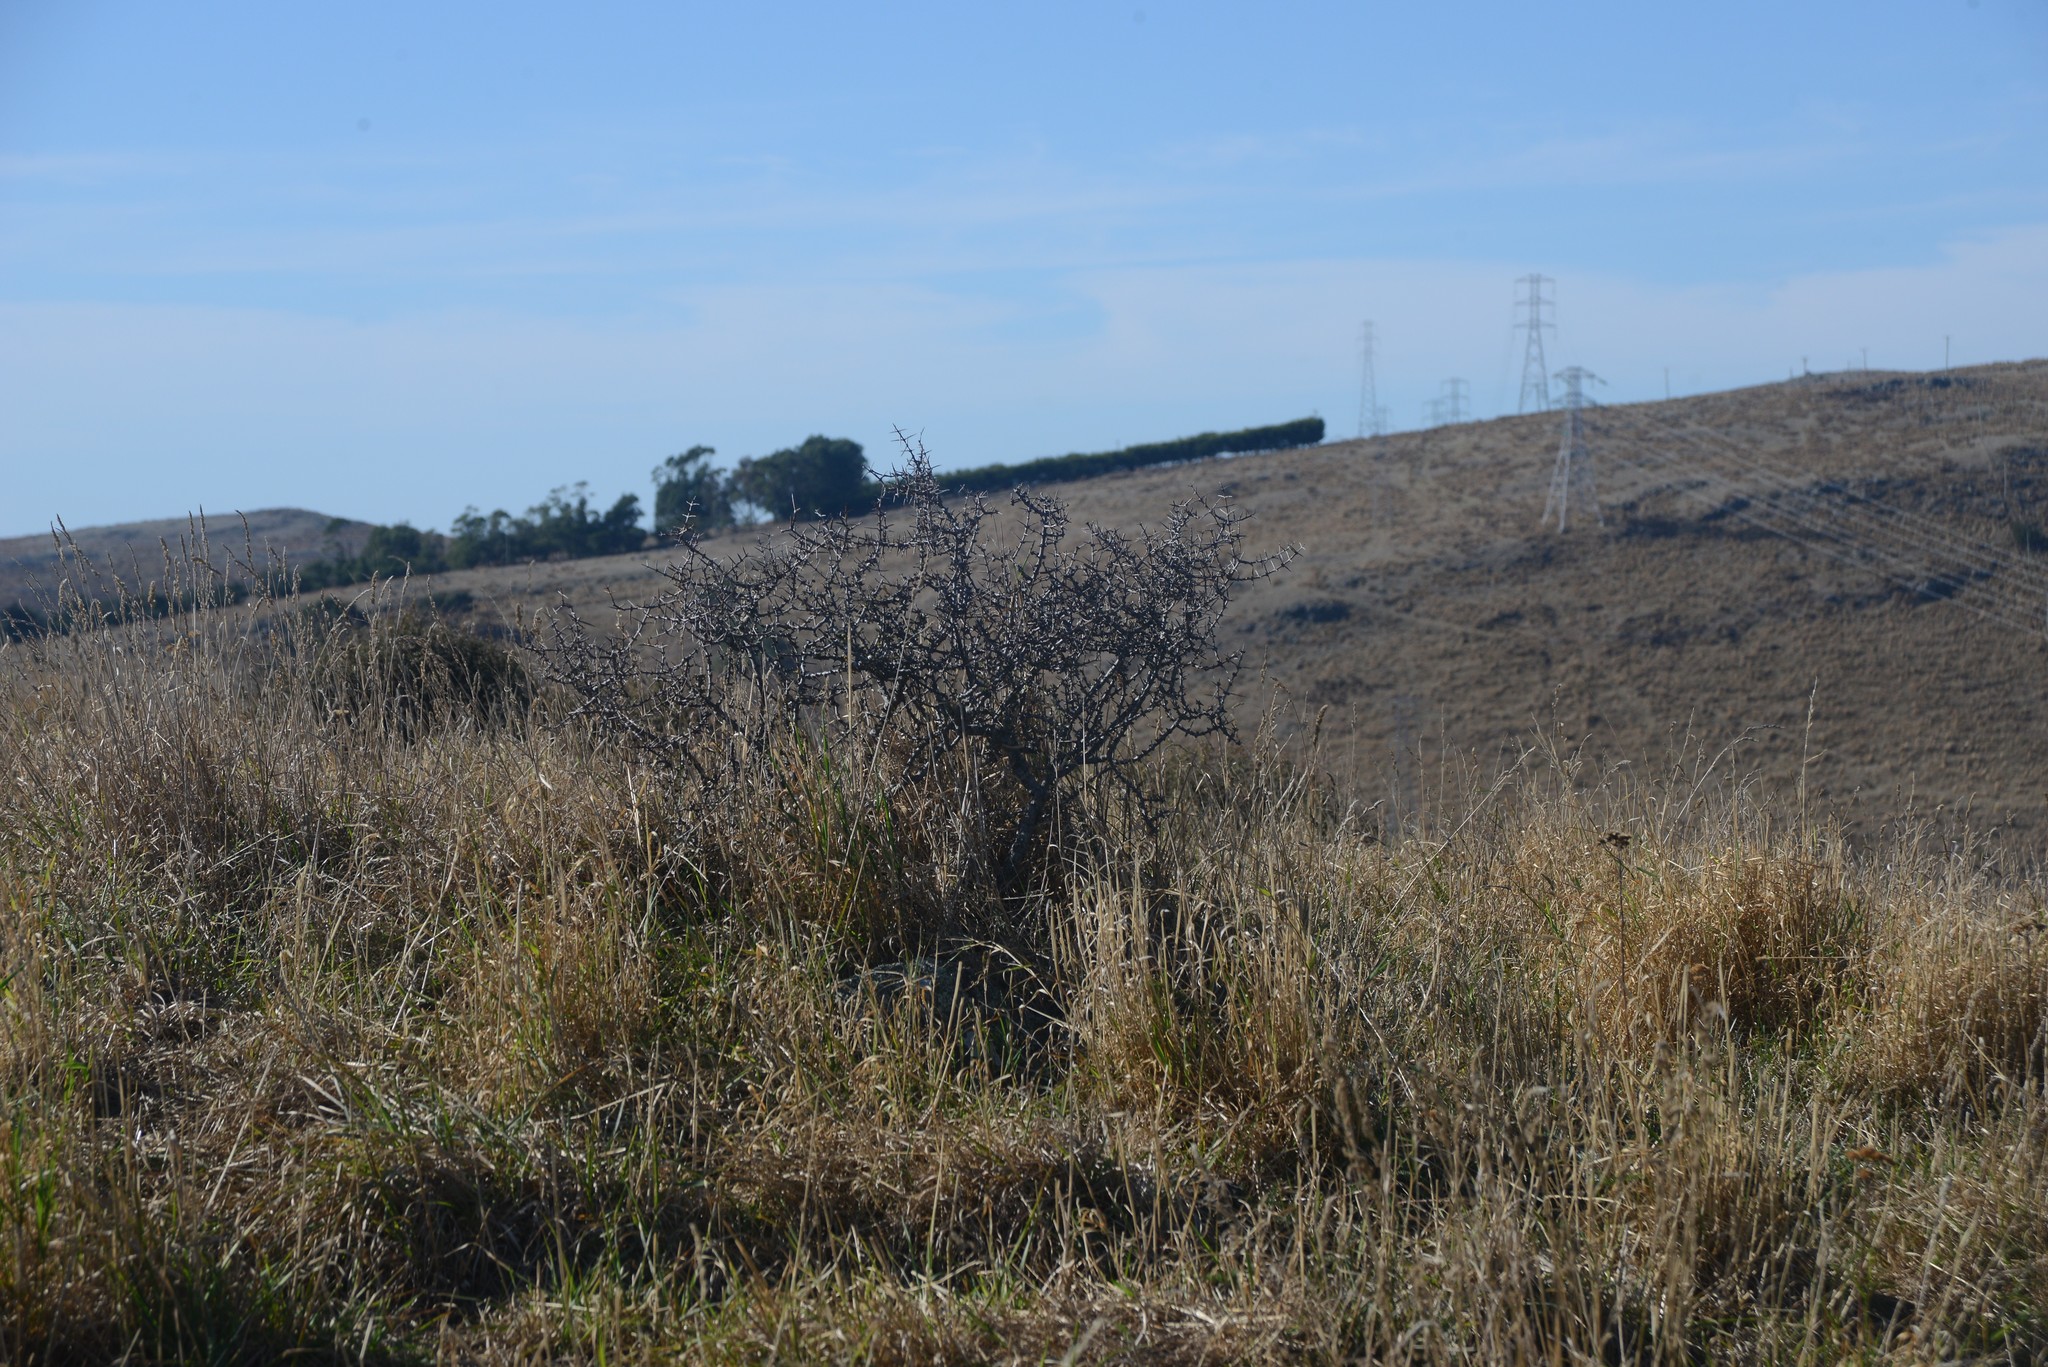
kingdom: Plantae
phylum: Tracheophyta
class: Magnoliopsida
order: Rosales
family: Rhamnaceae
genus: Discaria
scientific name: Discaria toumatou
